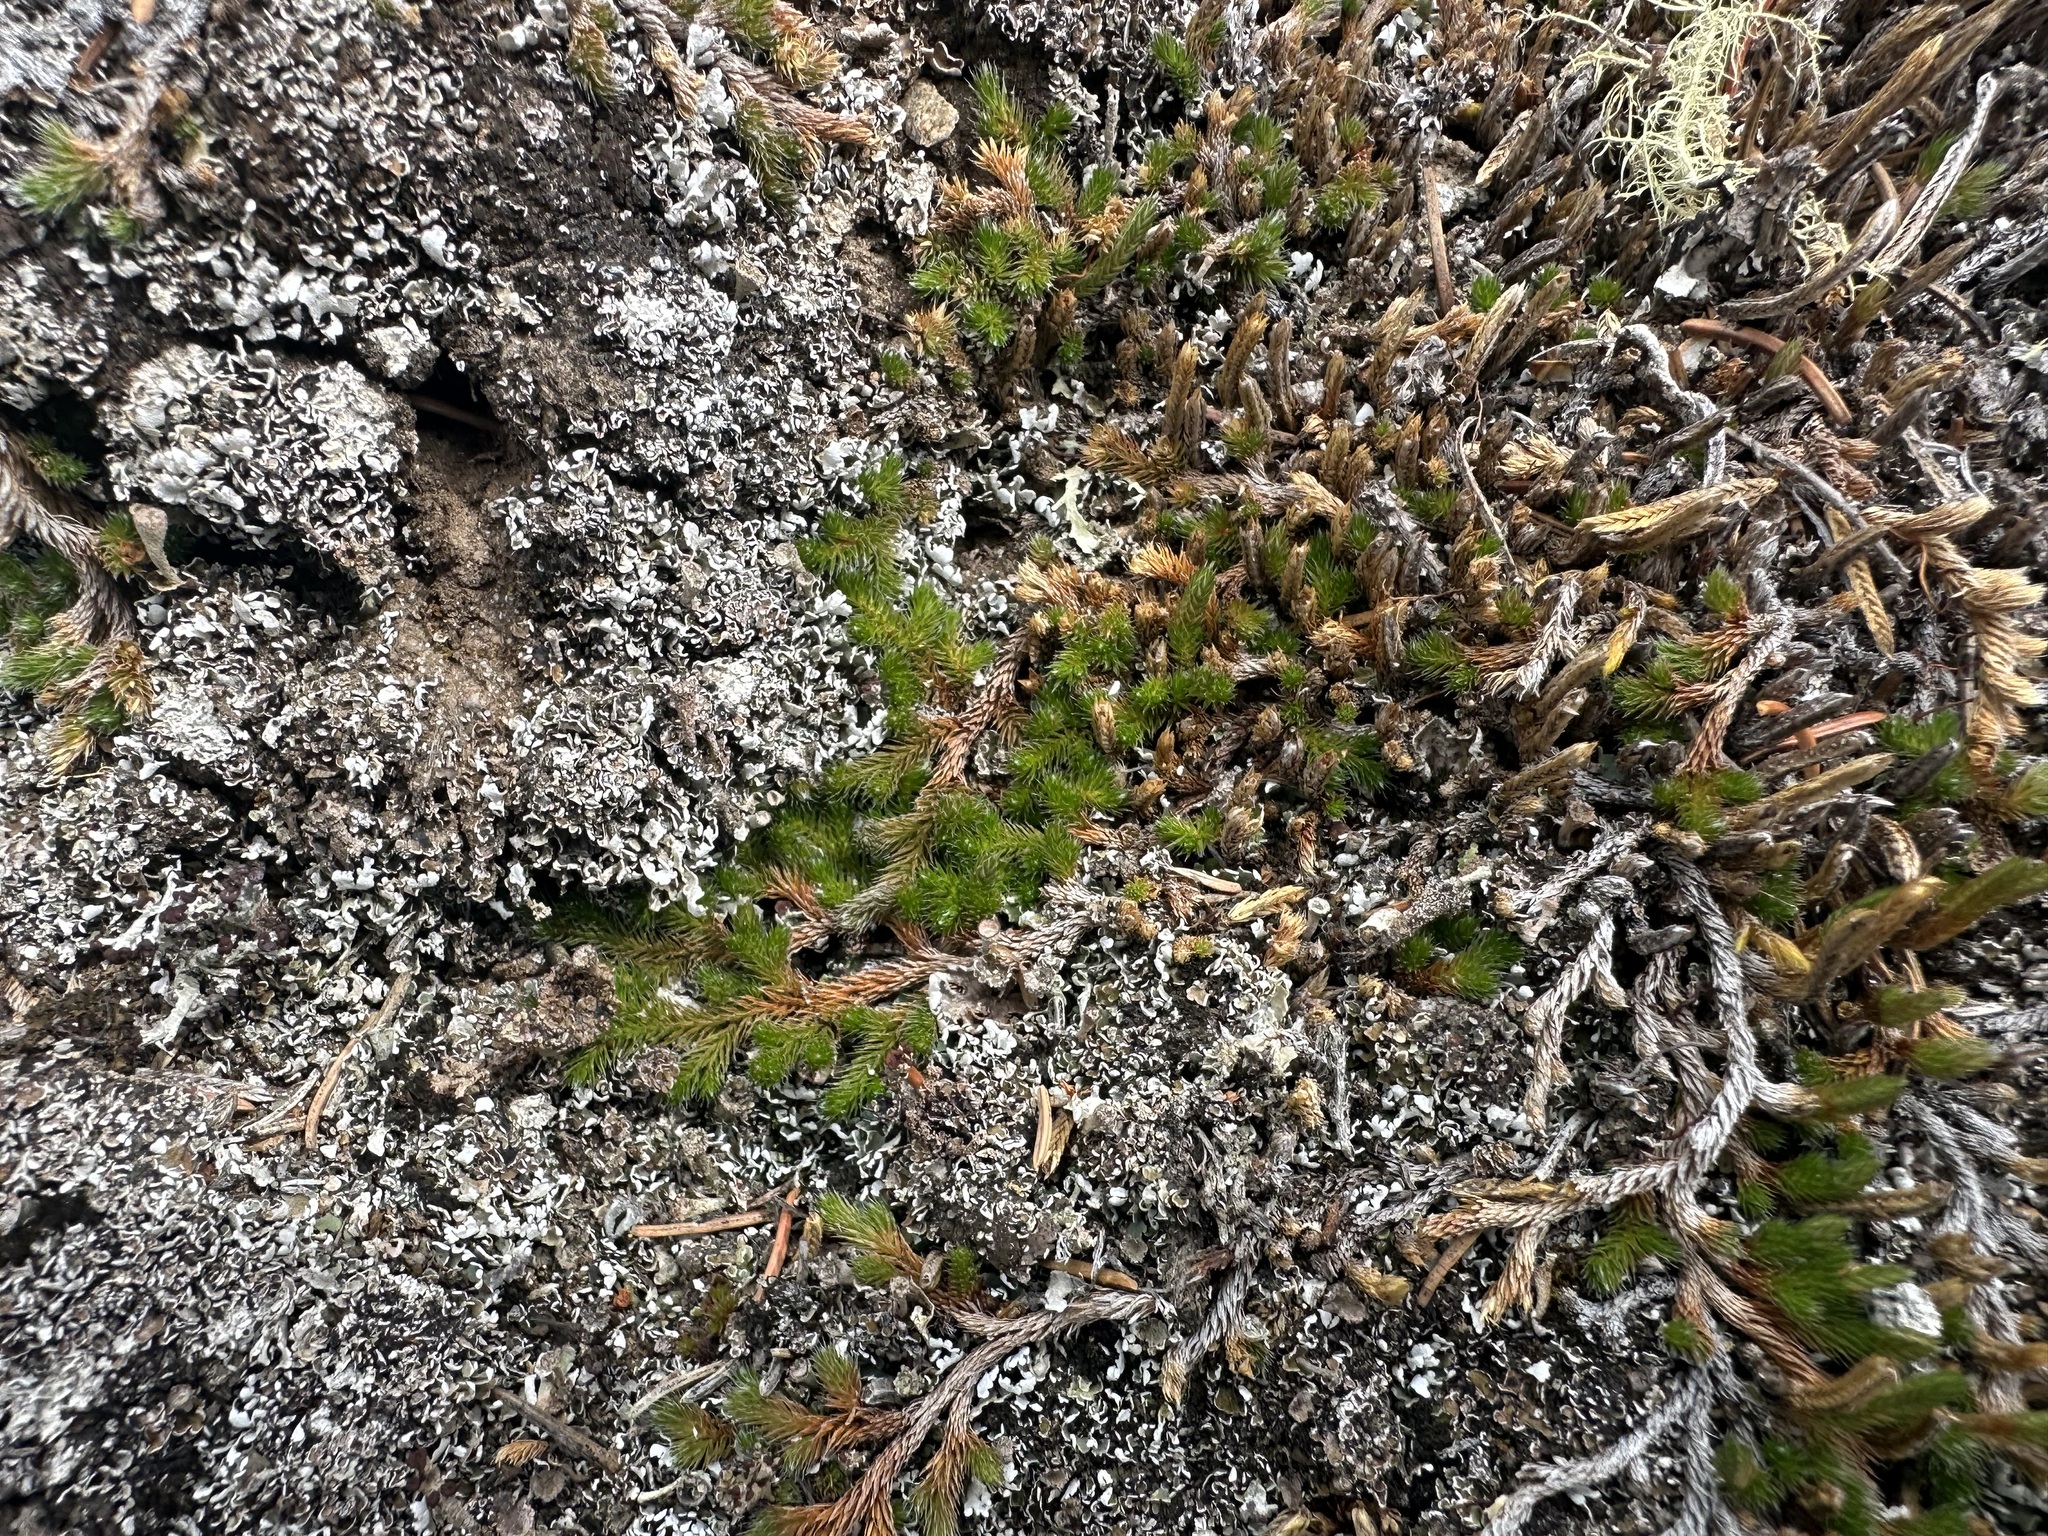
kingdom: Plantae
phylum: Tracheophyta
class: Lycopodiopsida
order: Selaginellales
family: Selaginellaceae
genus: Selaginella
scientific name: Selaginella sibirica
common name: Siberian spikemoss
